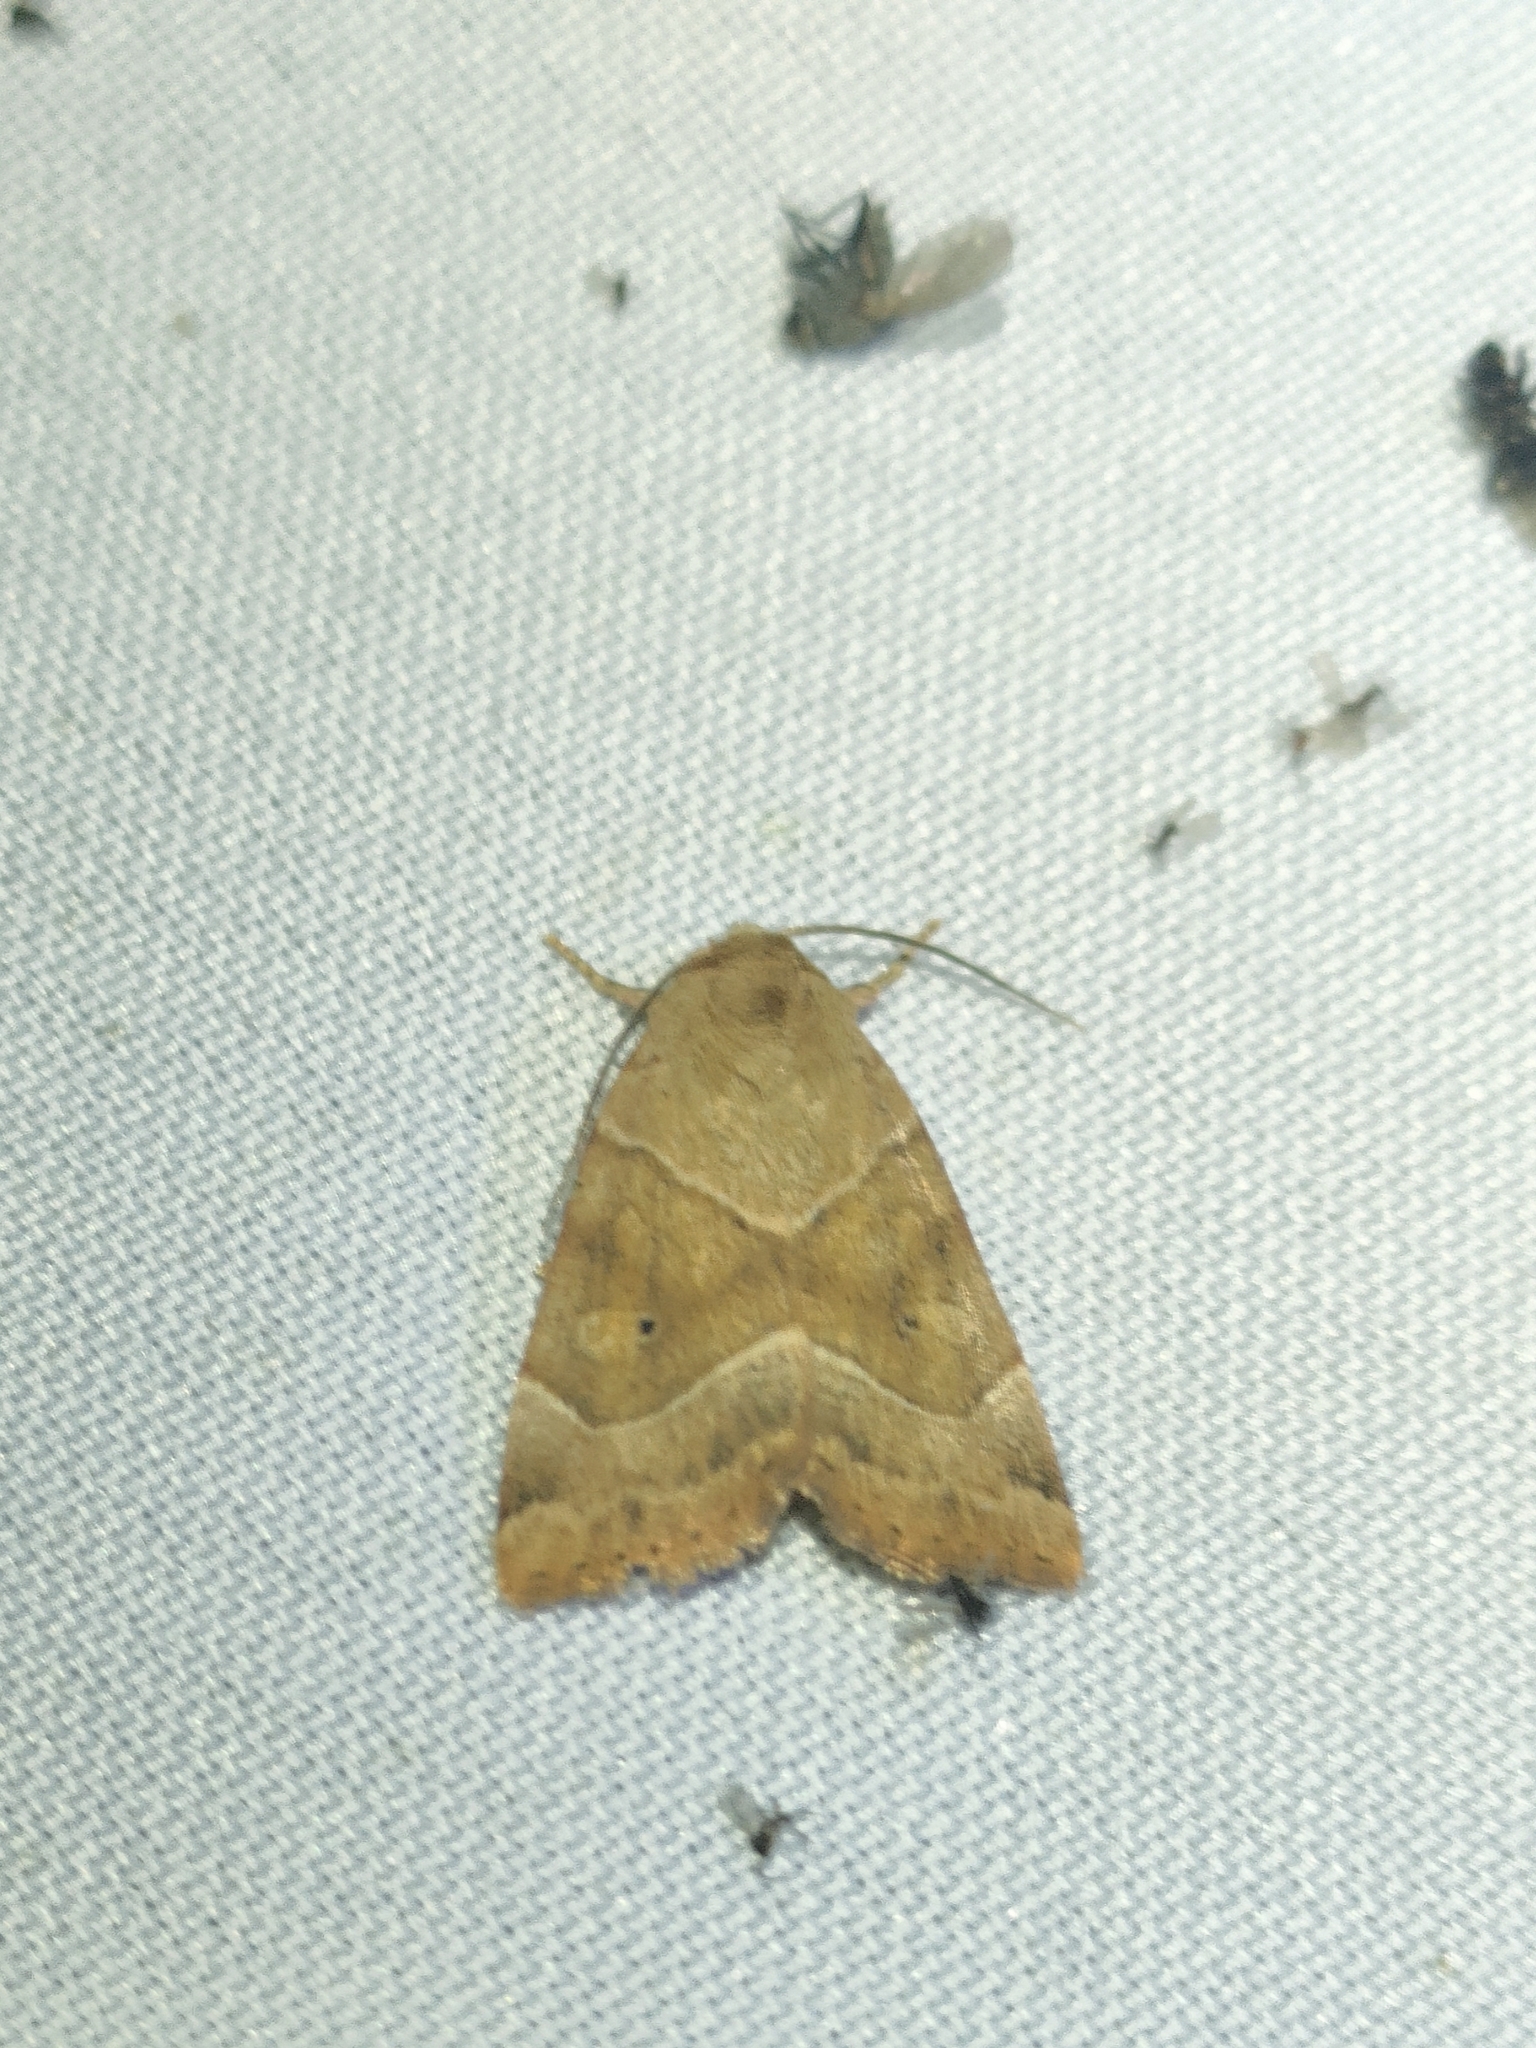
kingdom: Animalia
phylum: Arthropoda
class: Insecta
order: Lepidoptera
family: Noctuidae
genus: Cosmia
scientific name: Cosmia trapezina
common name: Dun-bar
